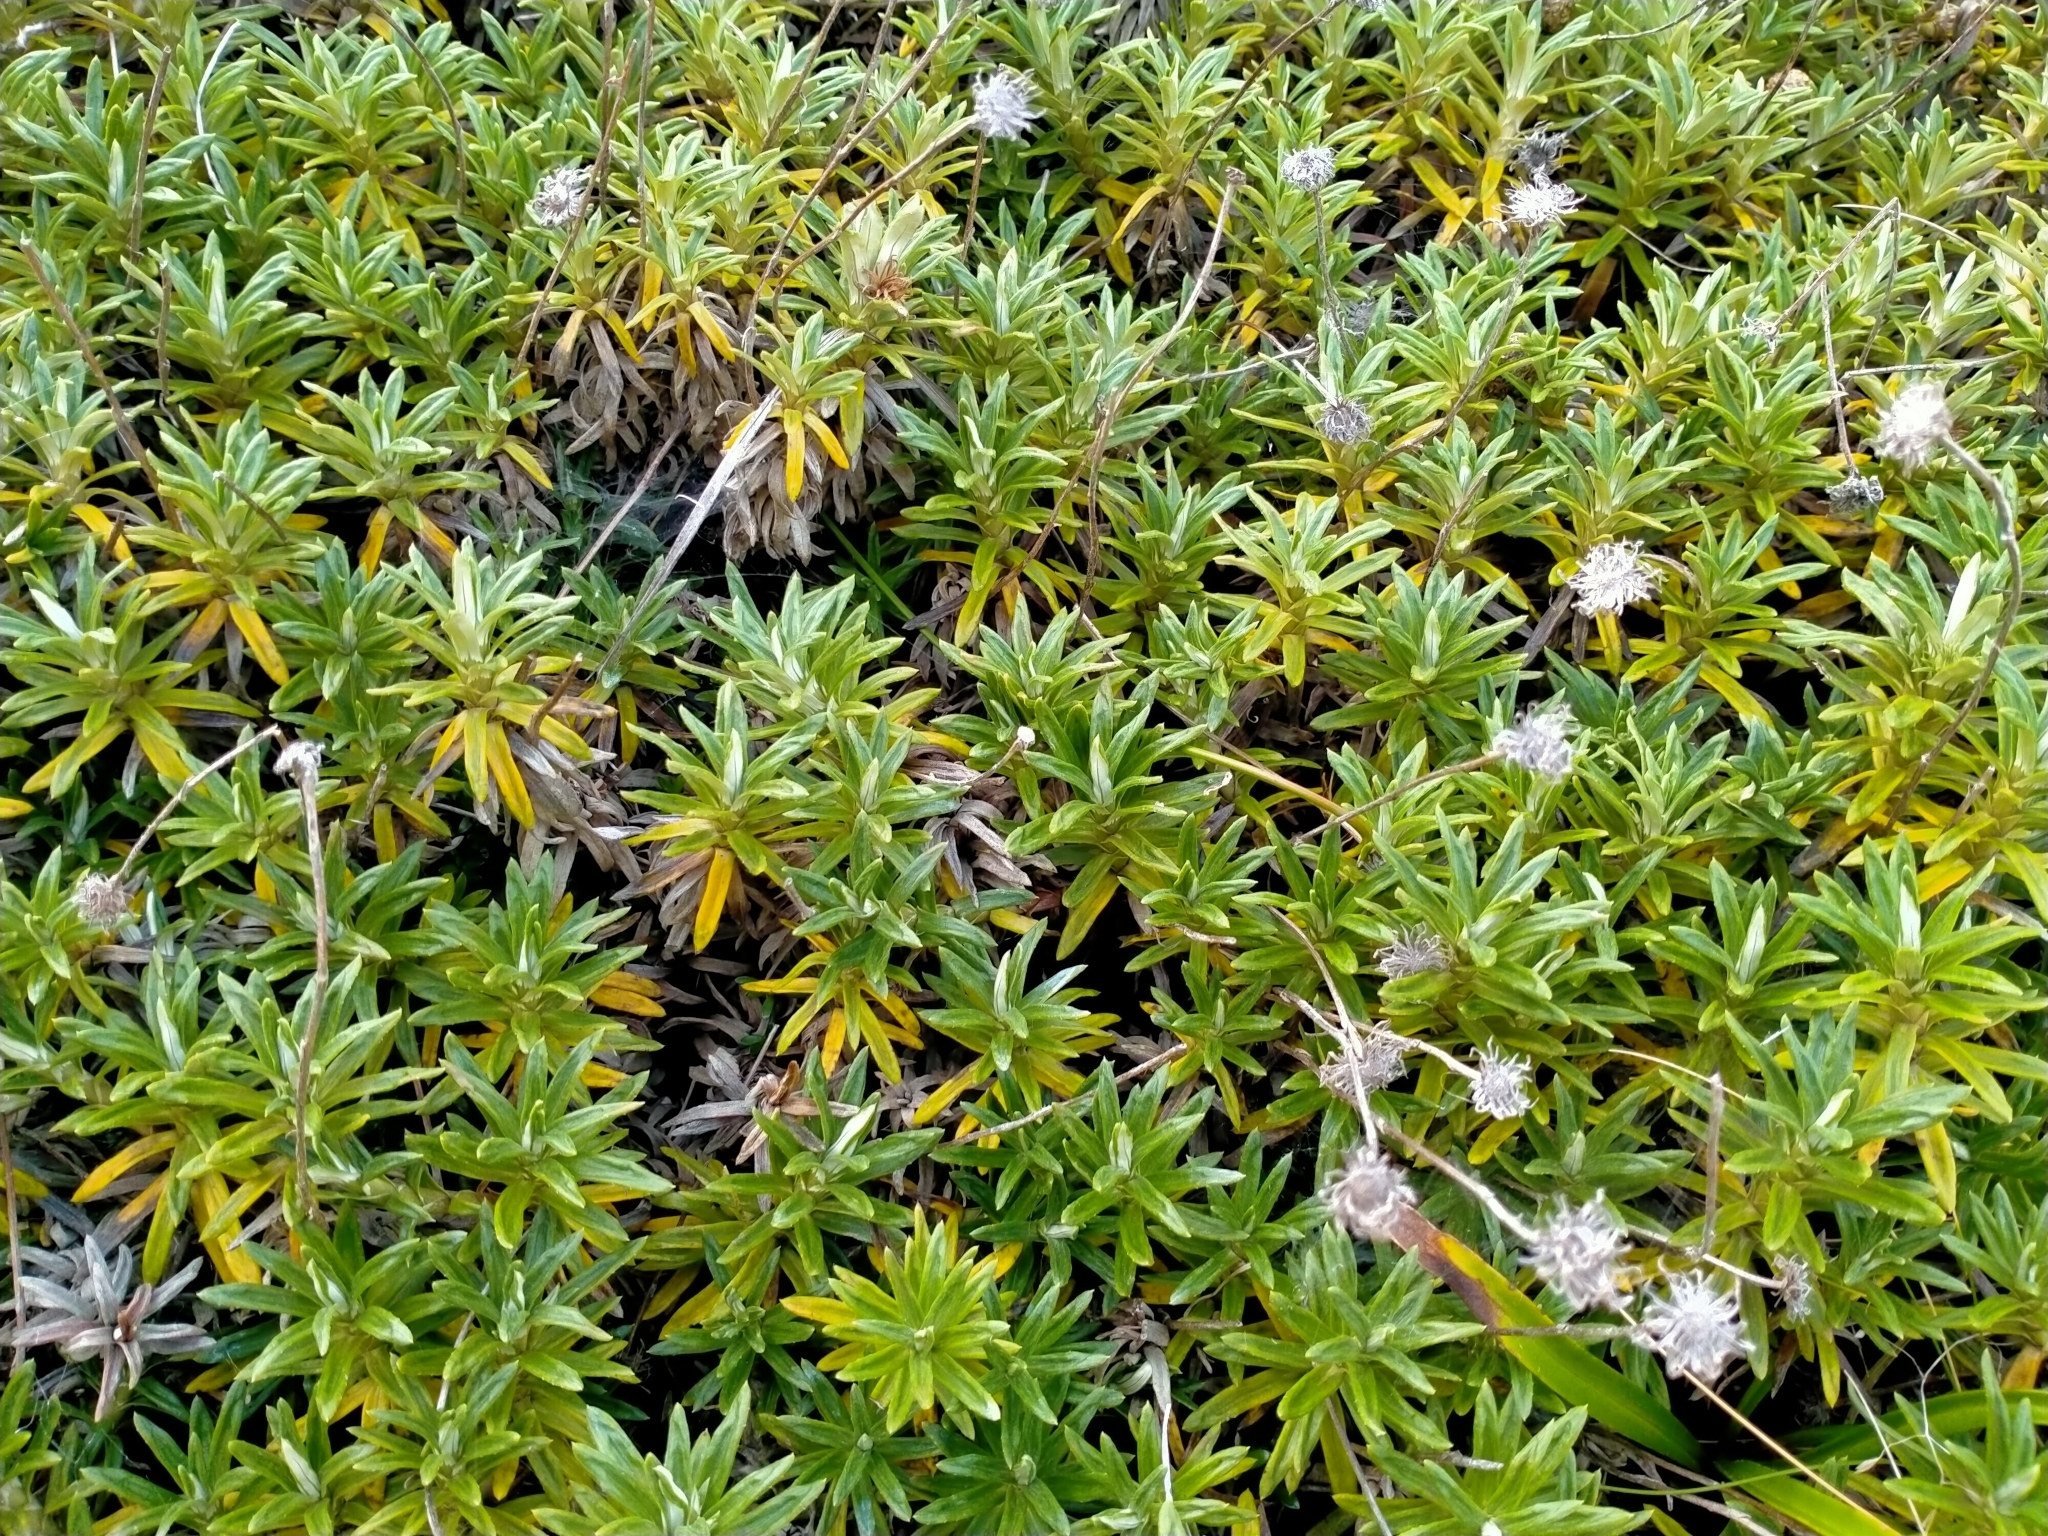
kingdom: Plantae
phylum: Tracheophyta
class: Magnoliopsida
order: Asterales
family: Asteraceae
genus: Celmisia
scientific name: Celmisia walkeri
